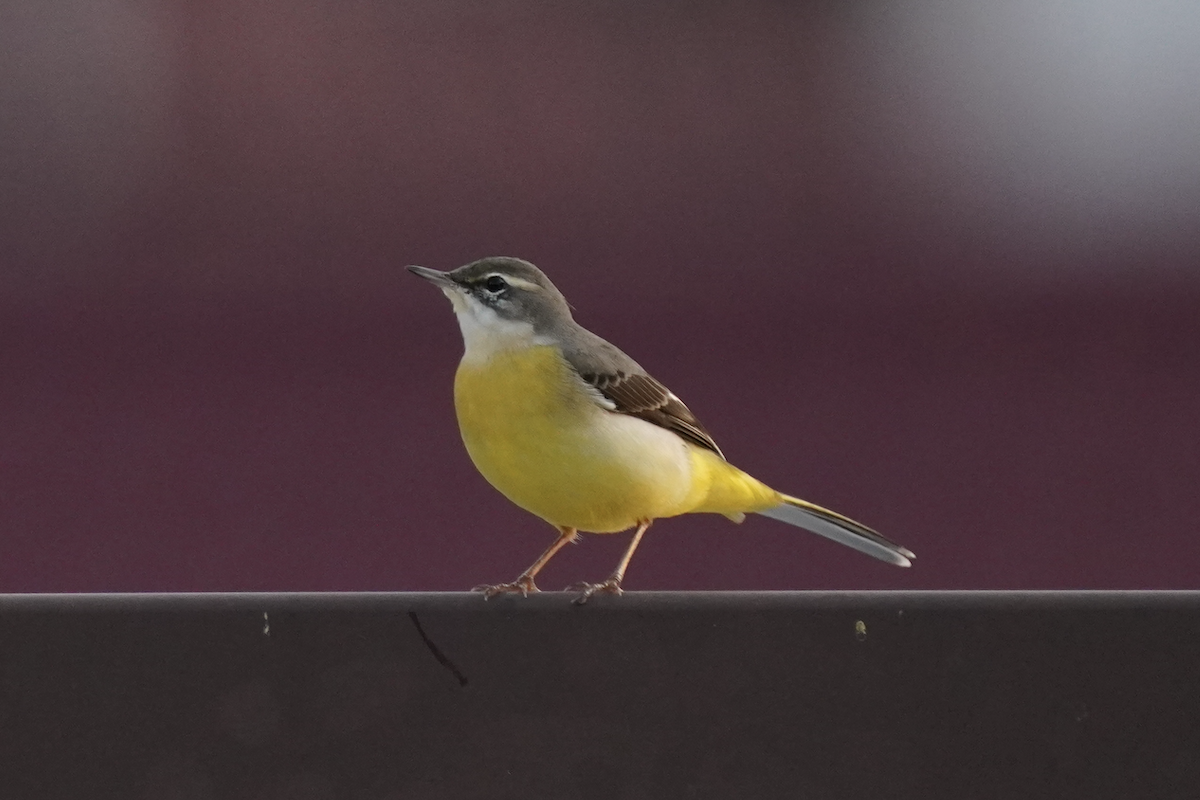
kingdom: Animalia
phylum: Chordata
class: Aves
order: Passeriformes
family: Motacillidae
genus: Motacilla
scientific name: Motacilla cinerea
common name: Grey wagtail
